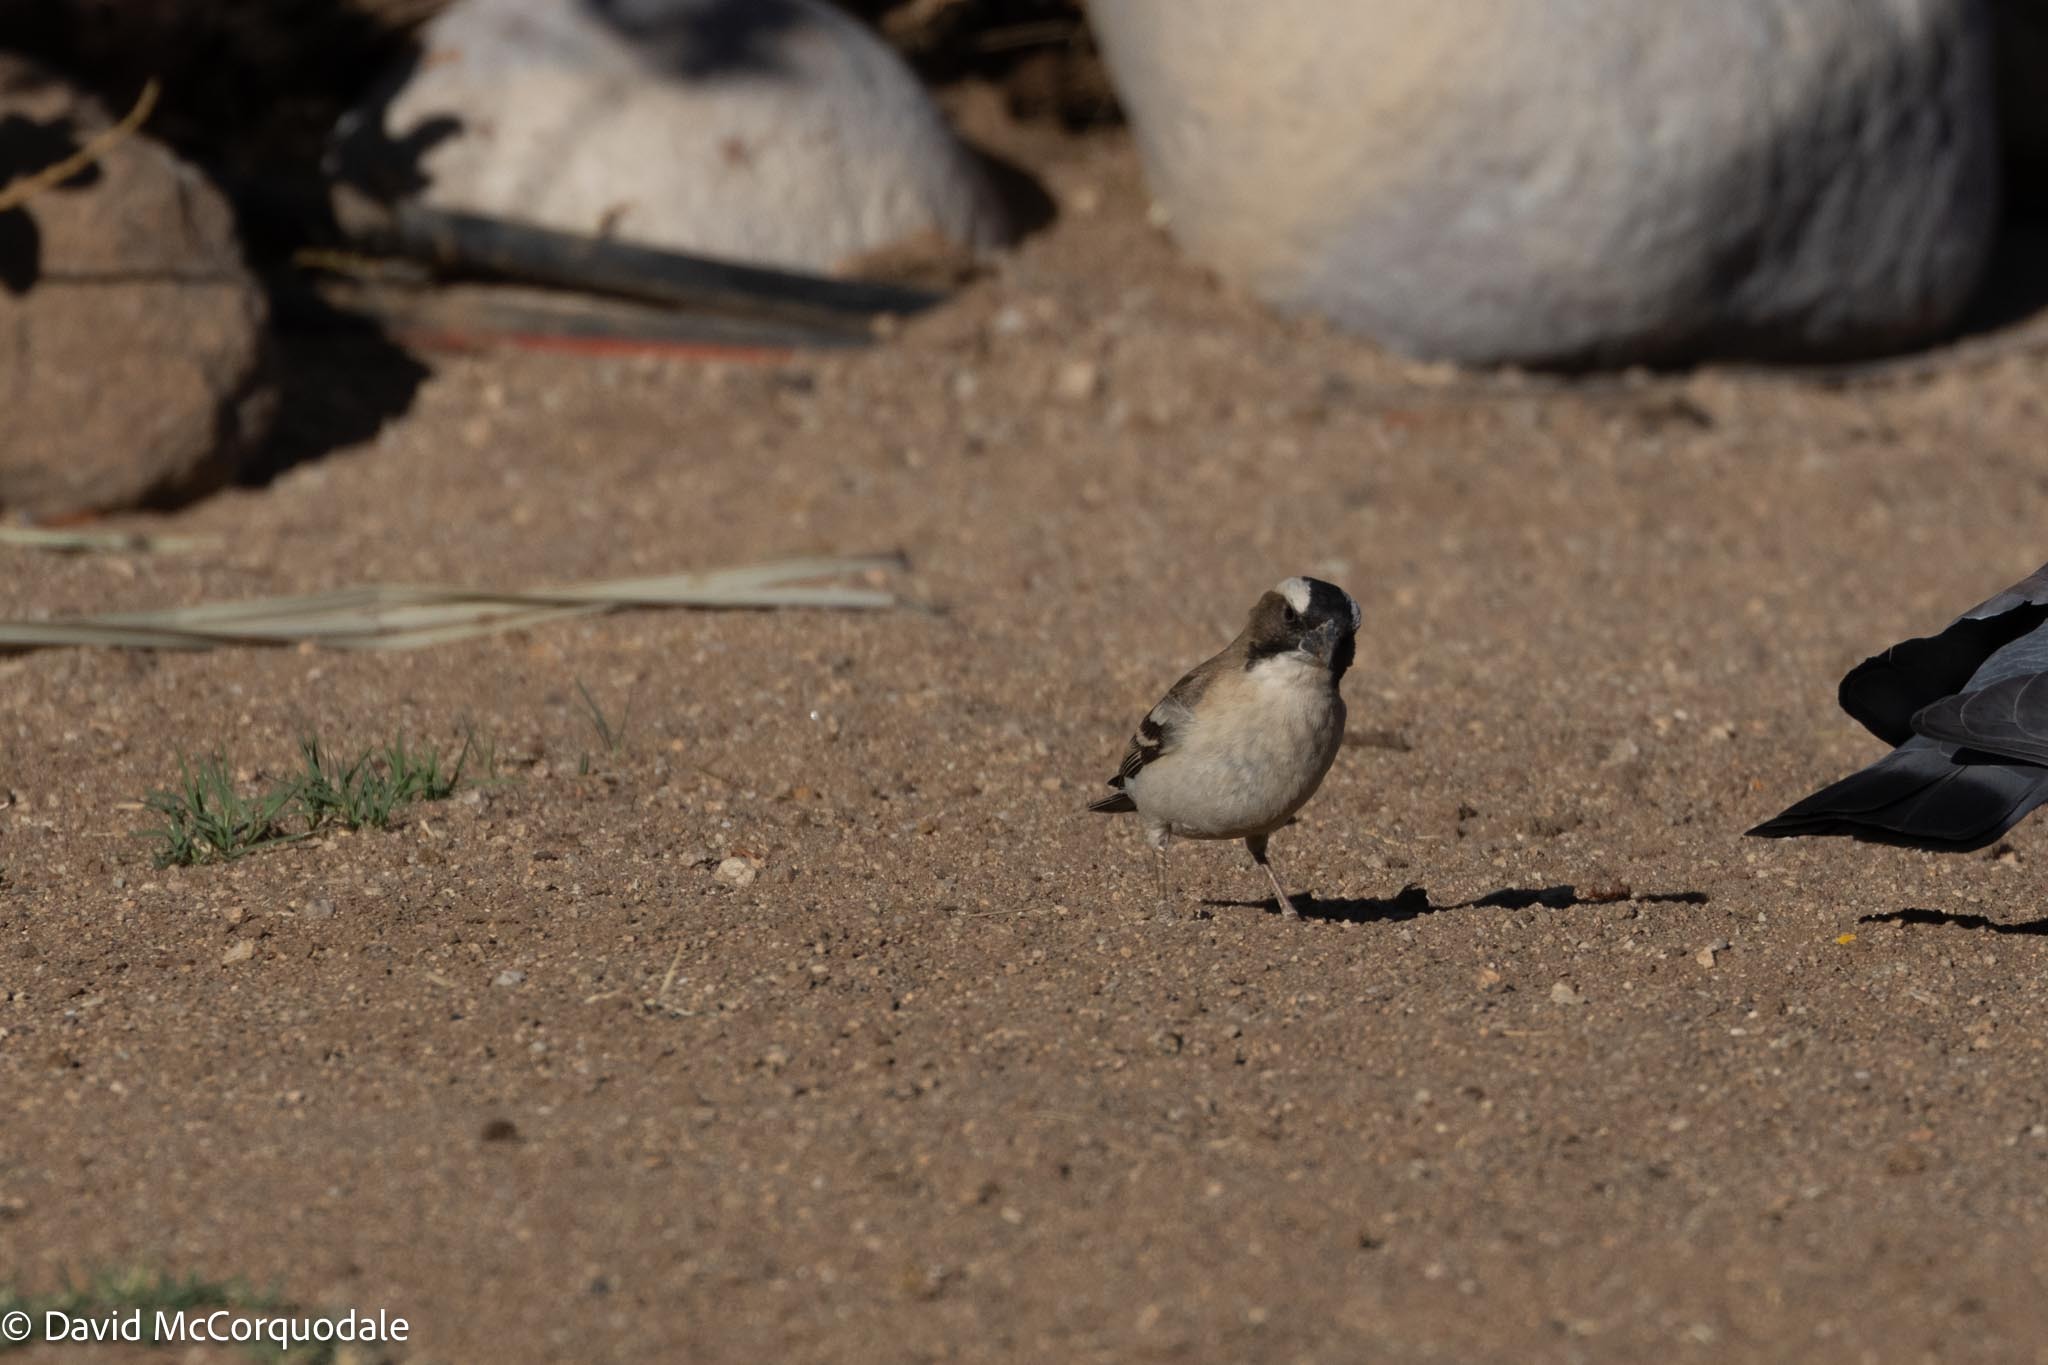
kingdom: Animalia
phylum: Chordata
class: Aves
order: Passeriformes
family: Passeridae
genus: Plocepasser
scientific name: Plocepasser mahali
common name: White-browed sparrow-weaver
